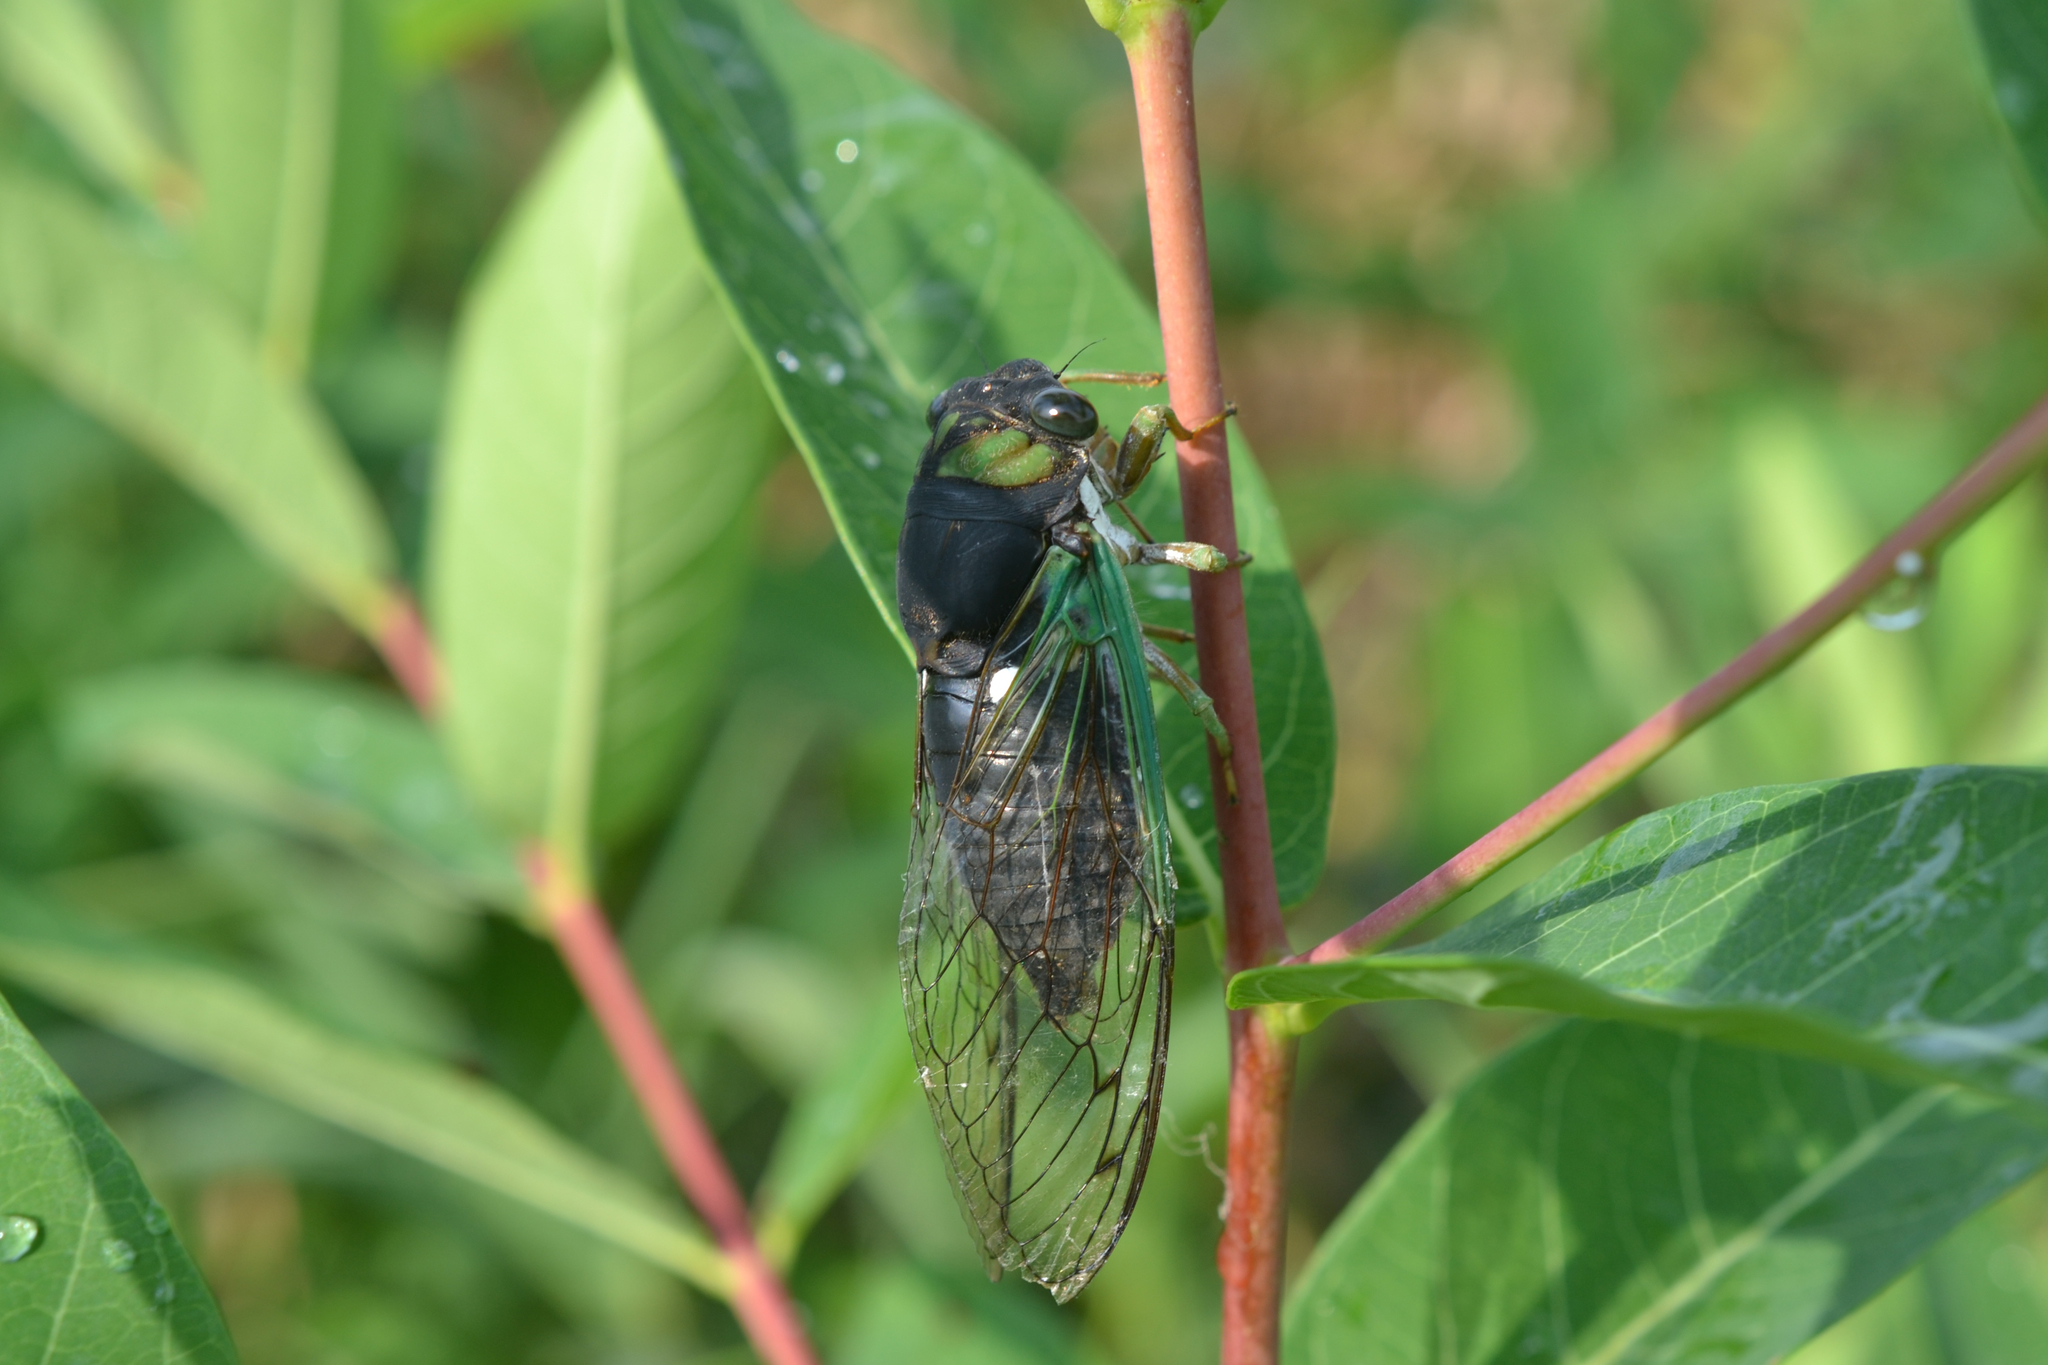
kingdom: Animalia
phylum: Arthropoda
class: Insecta
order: Hemiptera
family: Cicadidae
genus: Neotibicen
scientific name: Neotibicen tibicen
